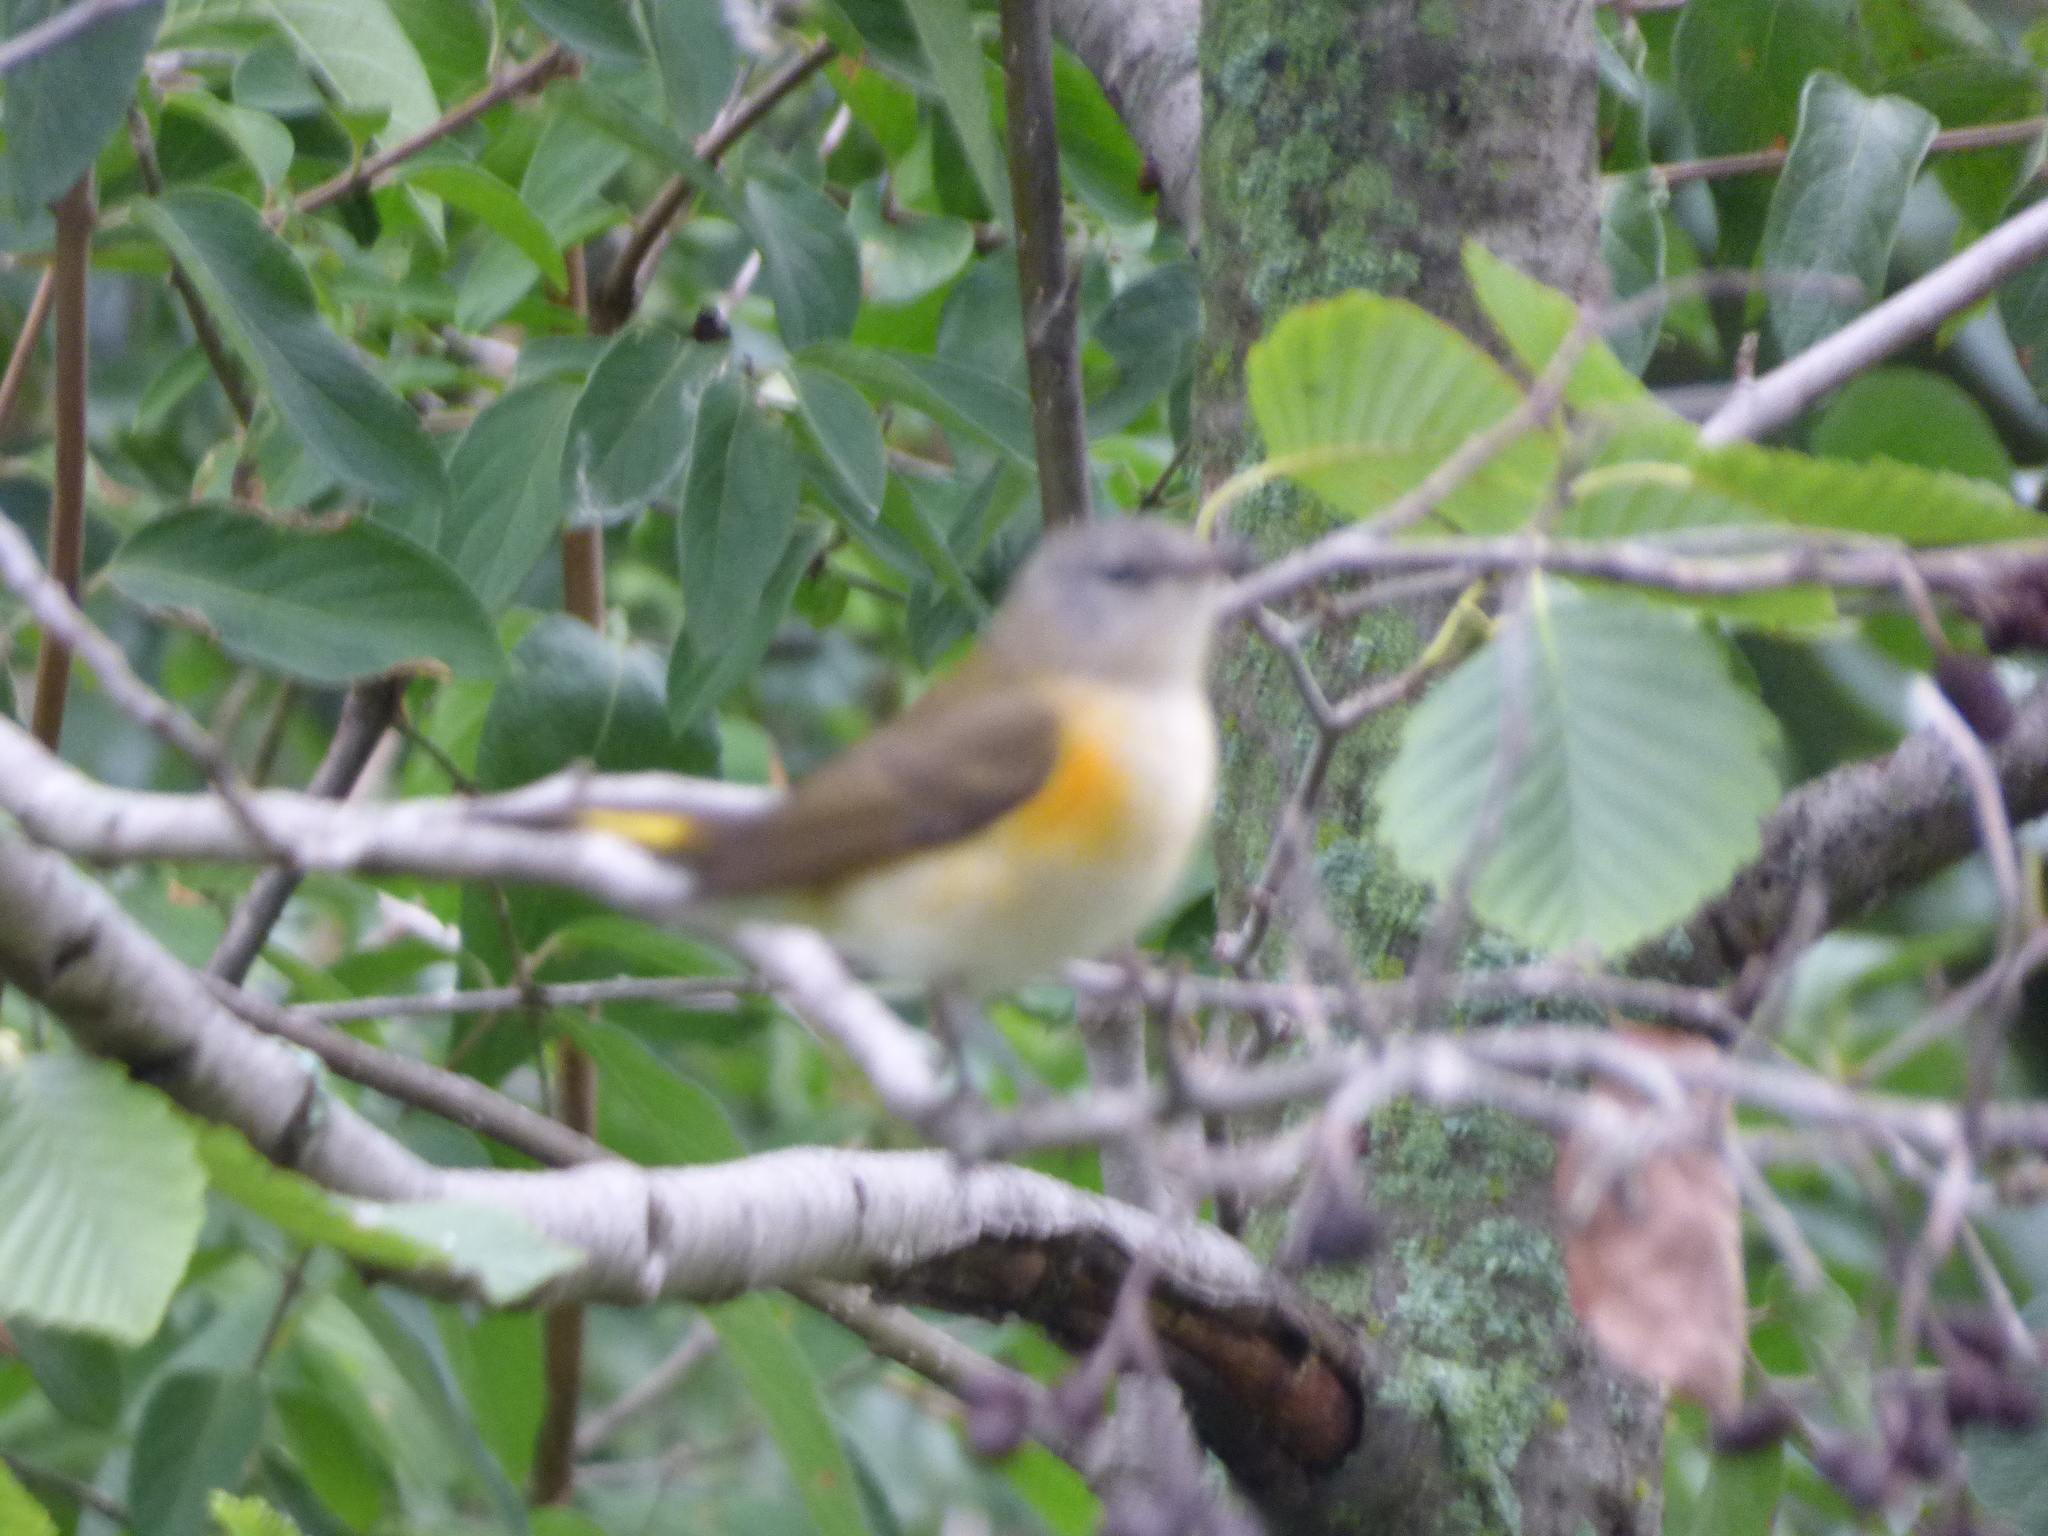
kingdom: Animalia
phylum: Chordata
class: Aves
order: Passeriformes
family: Parulidae
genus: Setophaga
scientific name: Setophaga ruticilla
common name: American redstart
